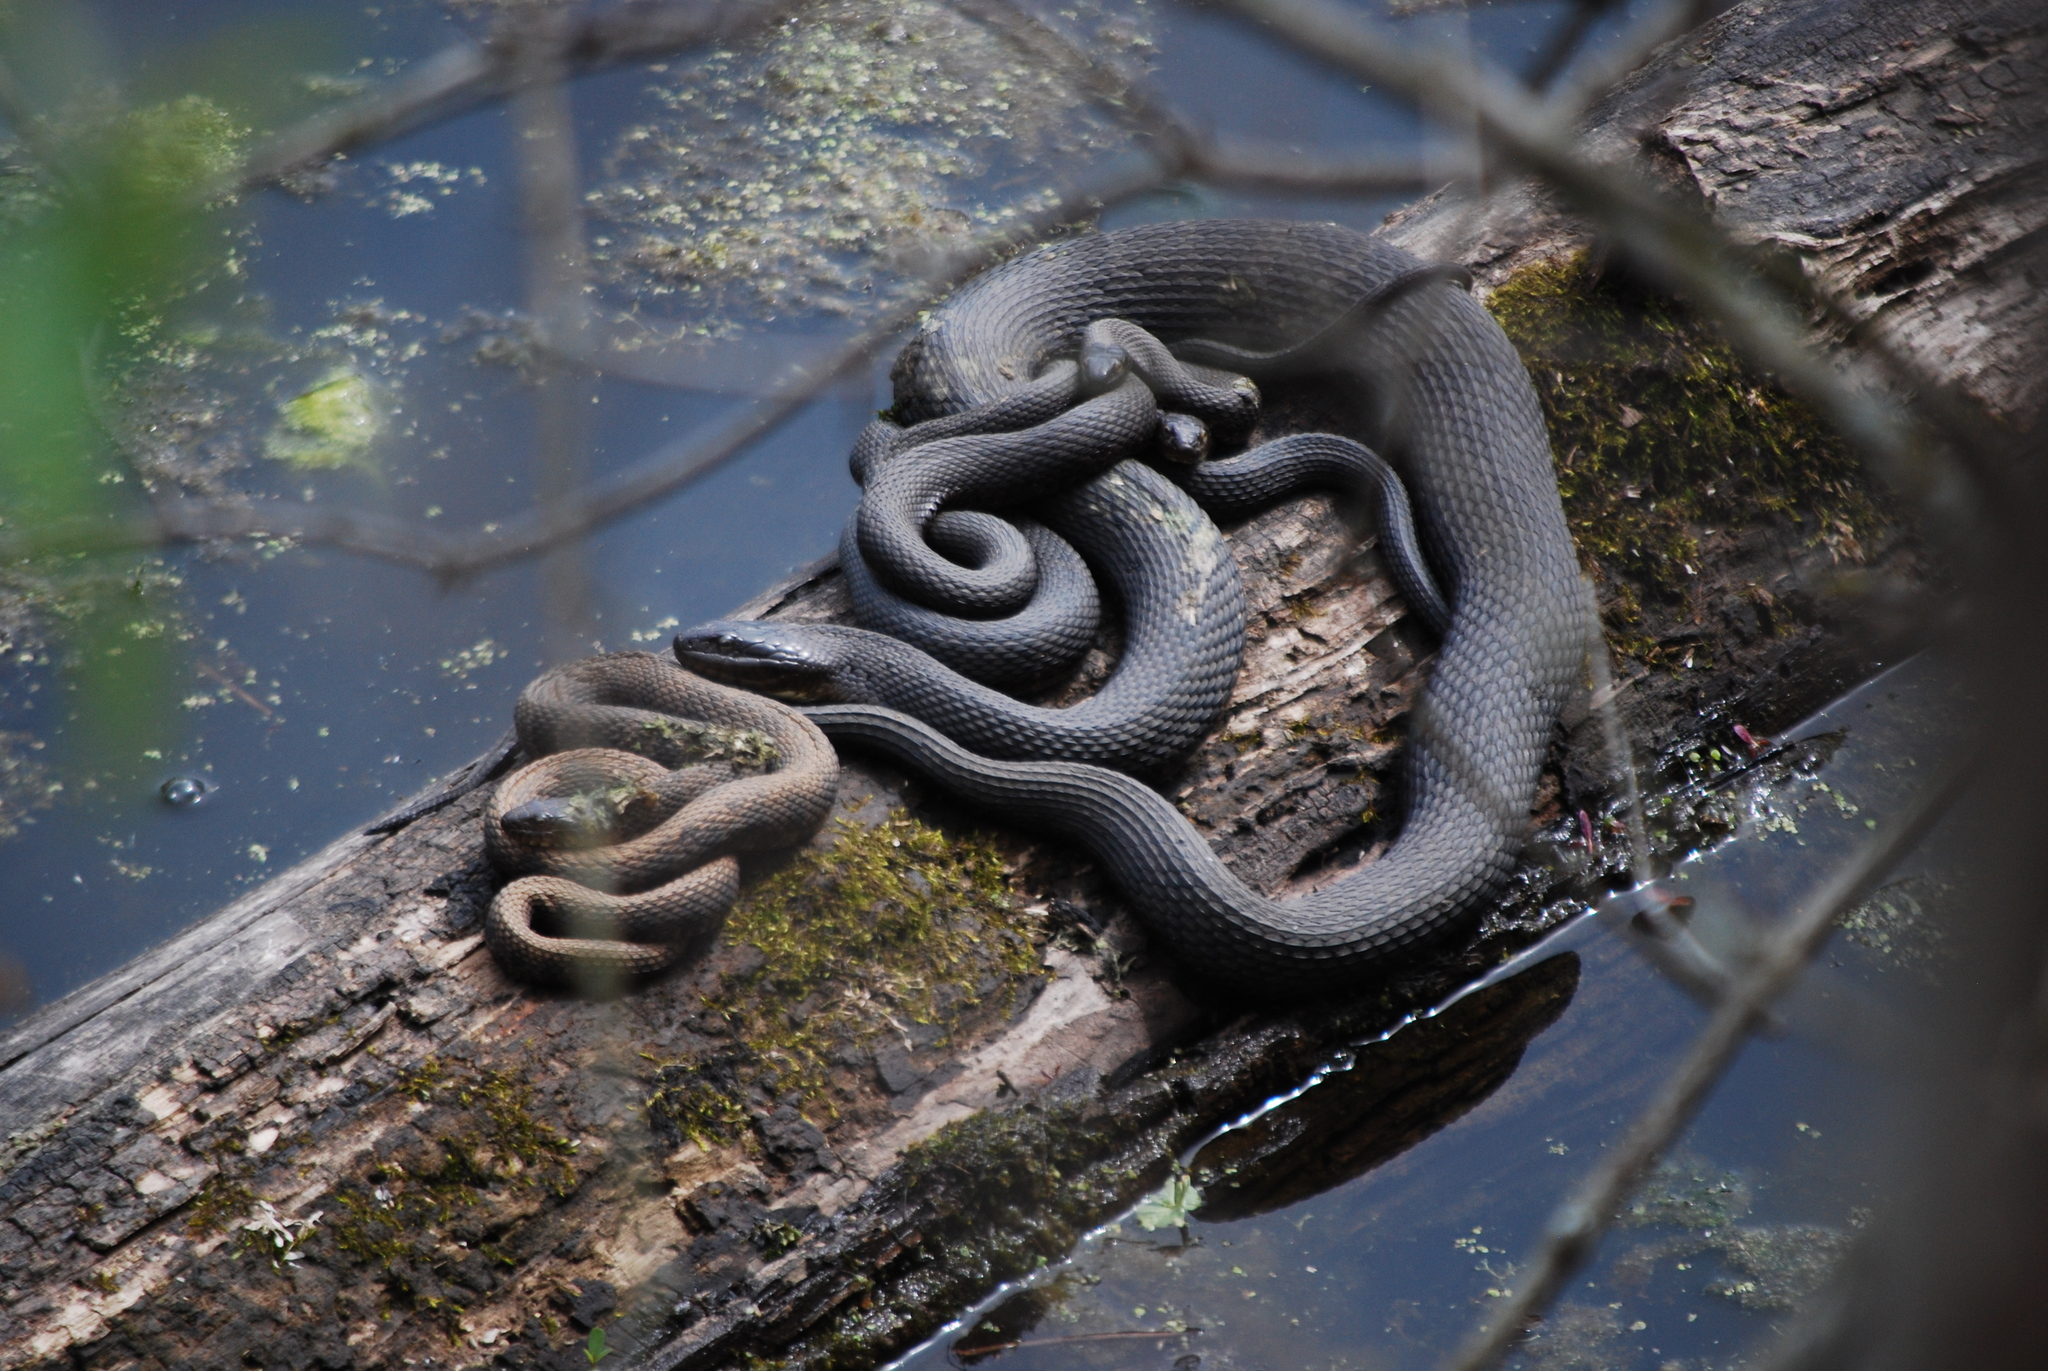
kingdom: Animalia
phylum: Chordata
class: Squamata
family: Colubridae
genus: Nerodia
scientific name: Nerodia sipedon
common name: Northern water snake
